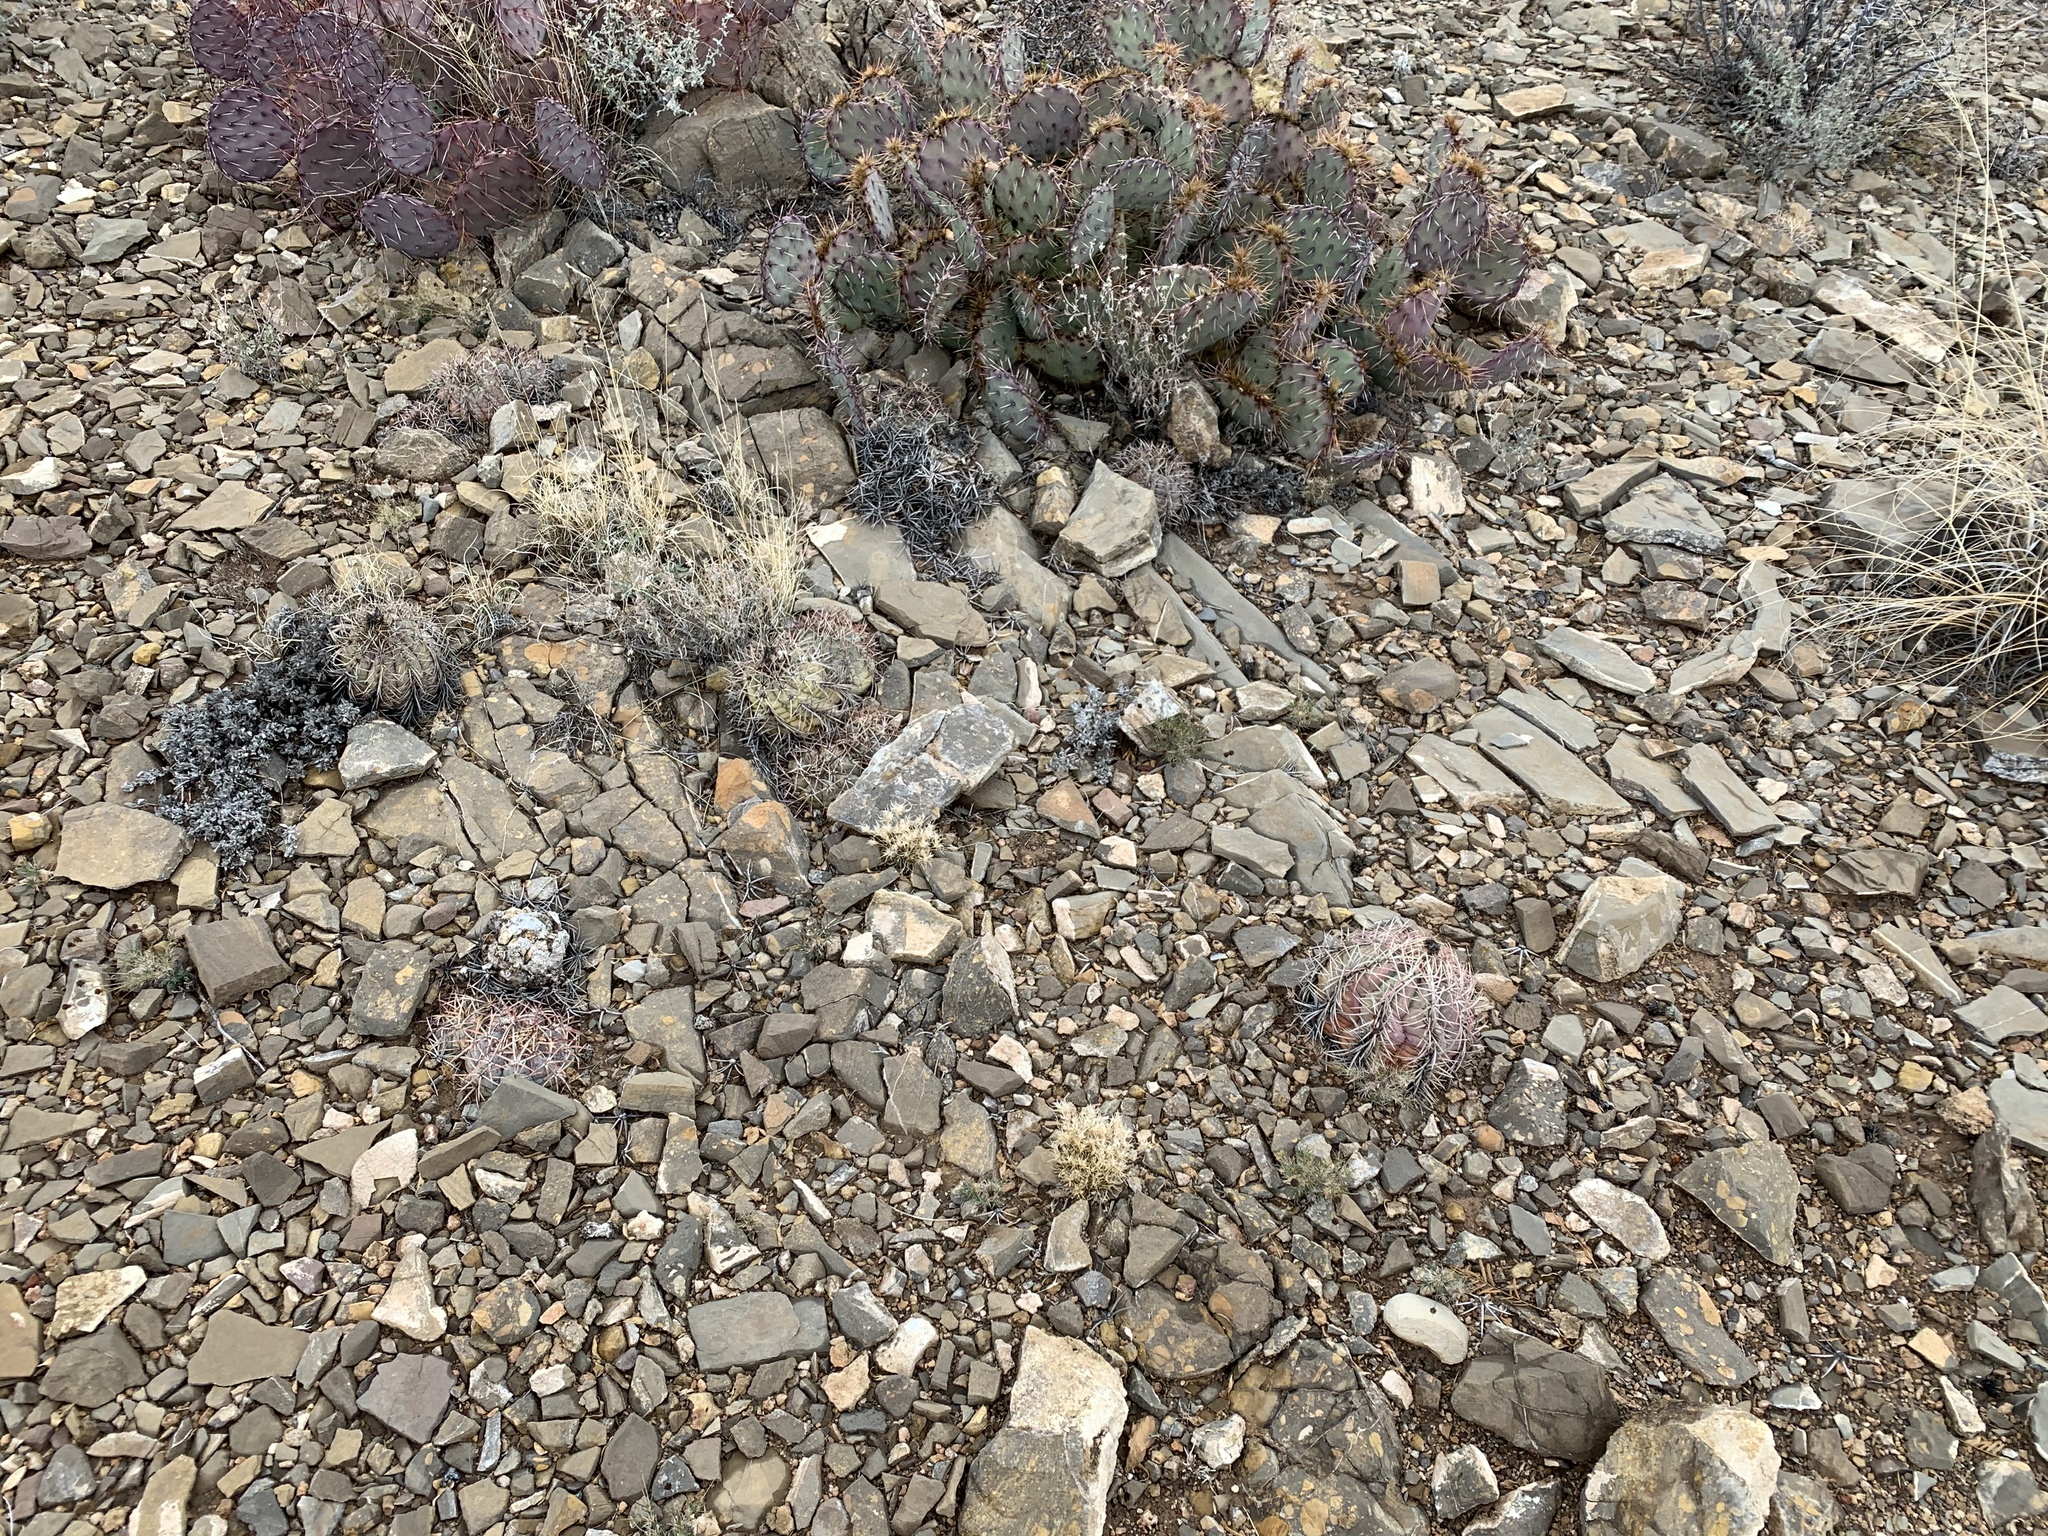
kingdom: Plantae
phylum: Tracheophyta
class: Magnoliopsida
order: Caryophyllales
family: Cactaceae
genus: Echinocactus
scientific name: Echinocactus horizonthalonius
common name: Devilshead
